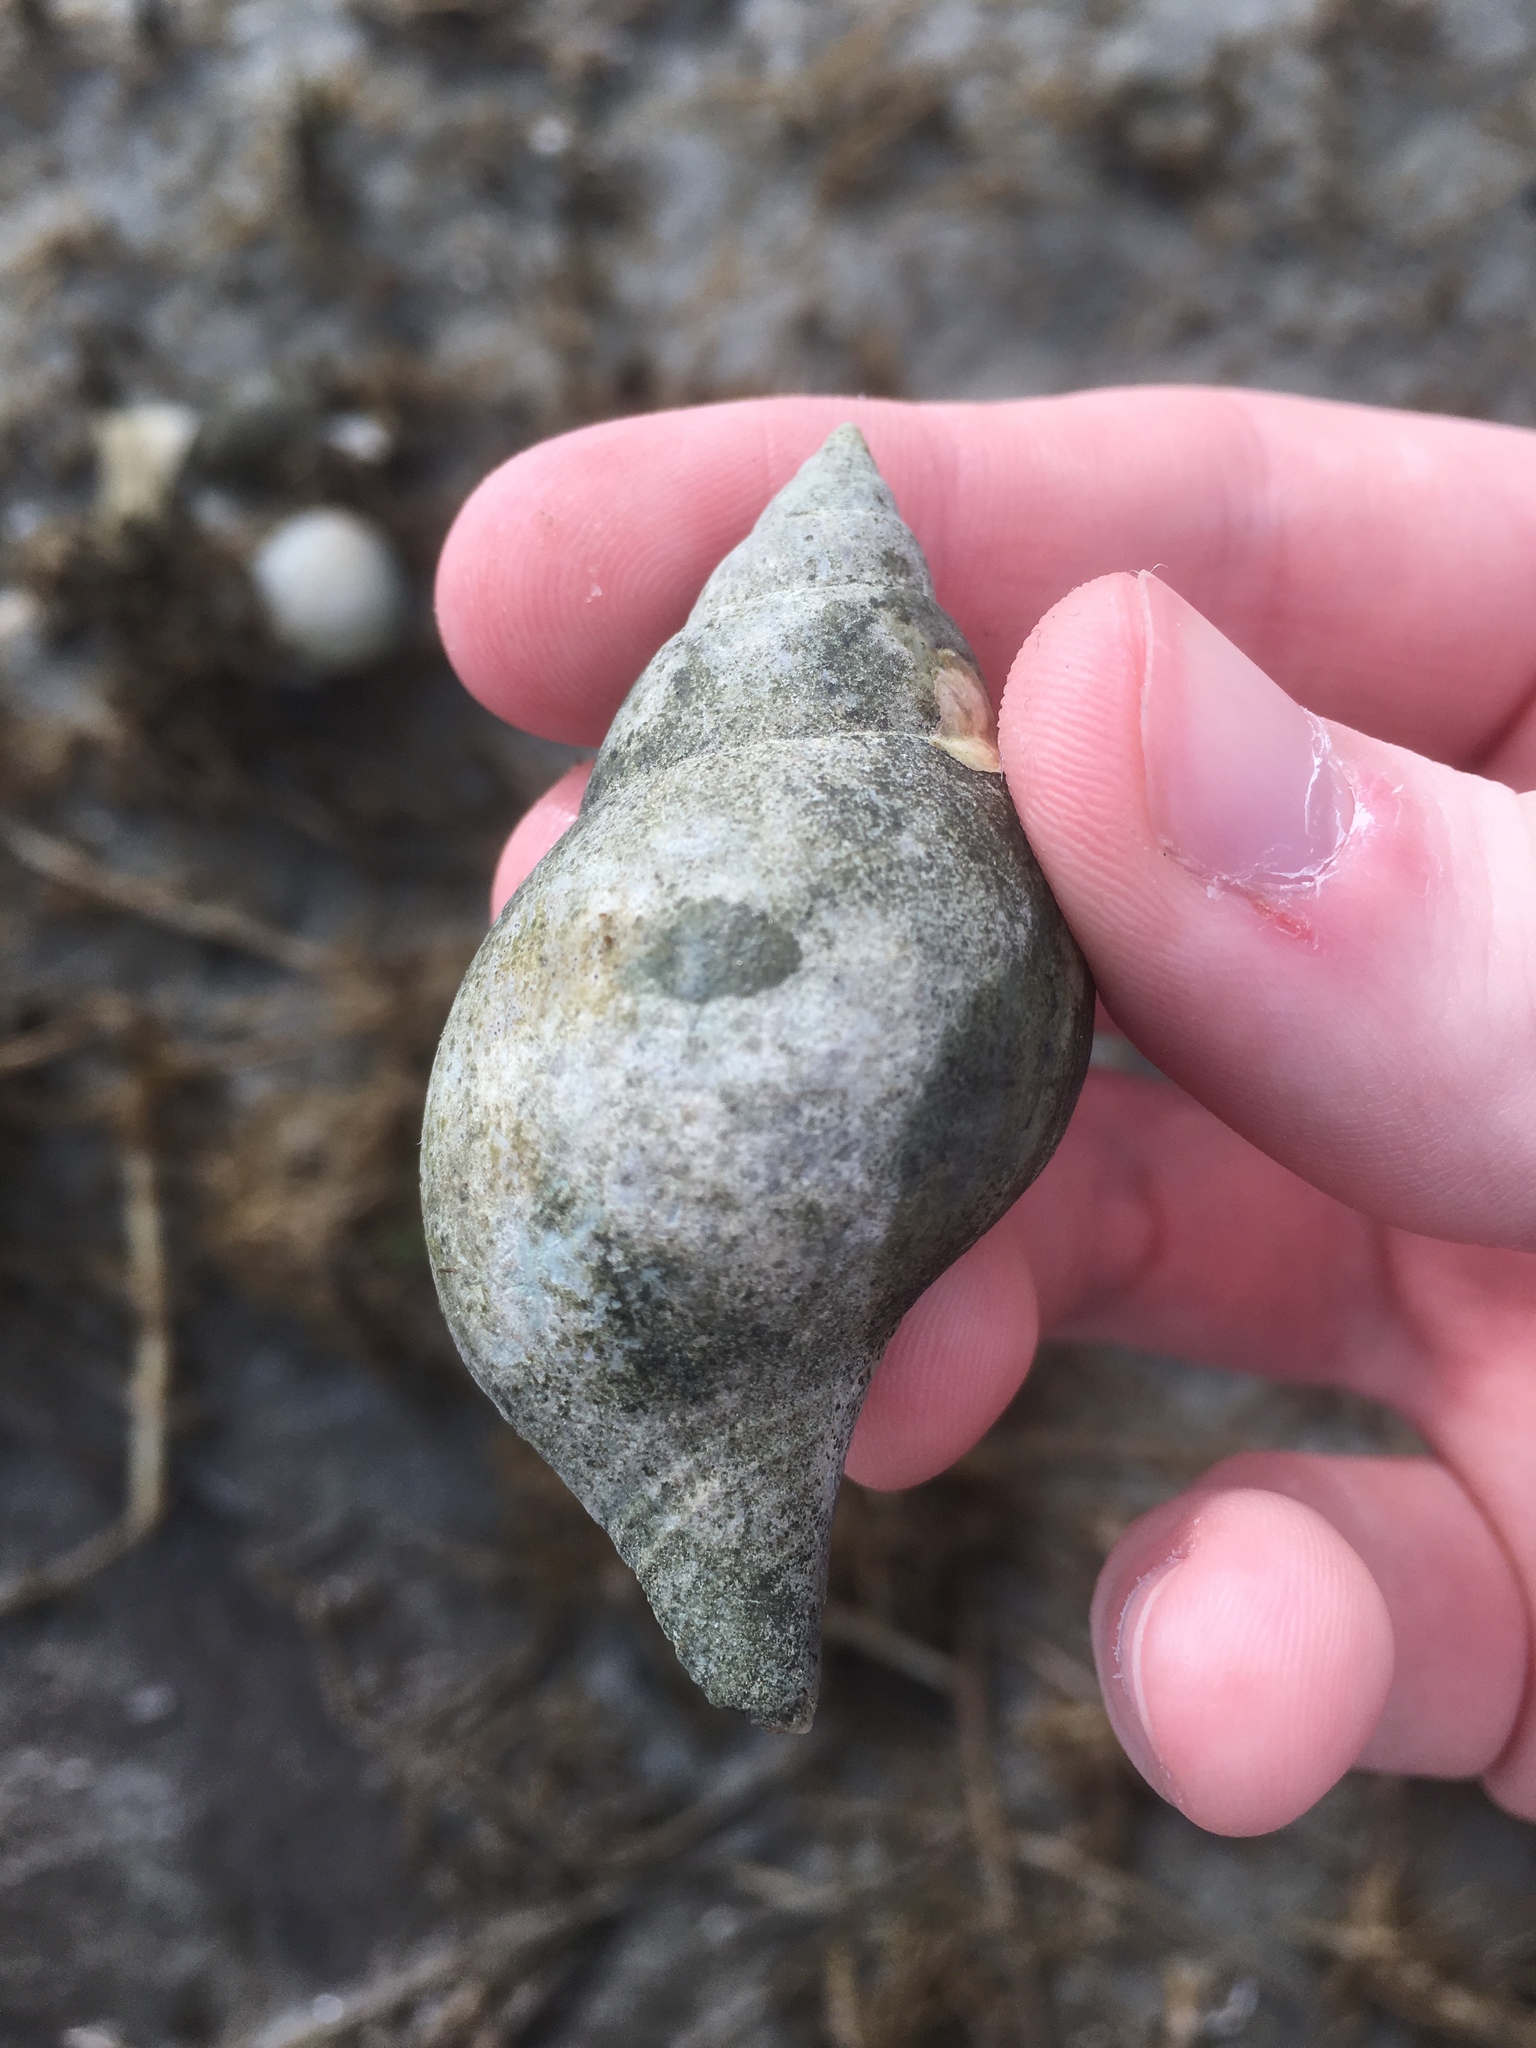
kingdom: Animalia
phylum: Mollusca
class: Gastropoda
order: Neogastropoda
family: Fasciolariidae
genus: Cinctura
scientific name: Cinctura hunteria
